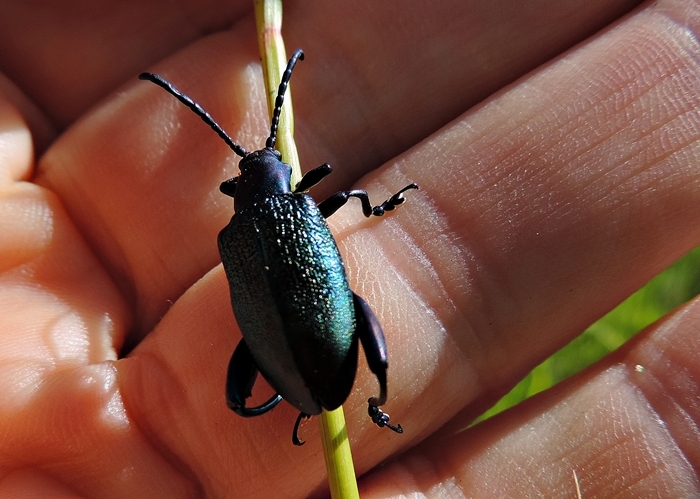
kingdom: Animalia
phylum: Arthropoda
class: Insecta
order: Coleoptera
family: Chrysomelidae
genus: Sagra
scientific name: Sagra
